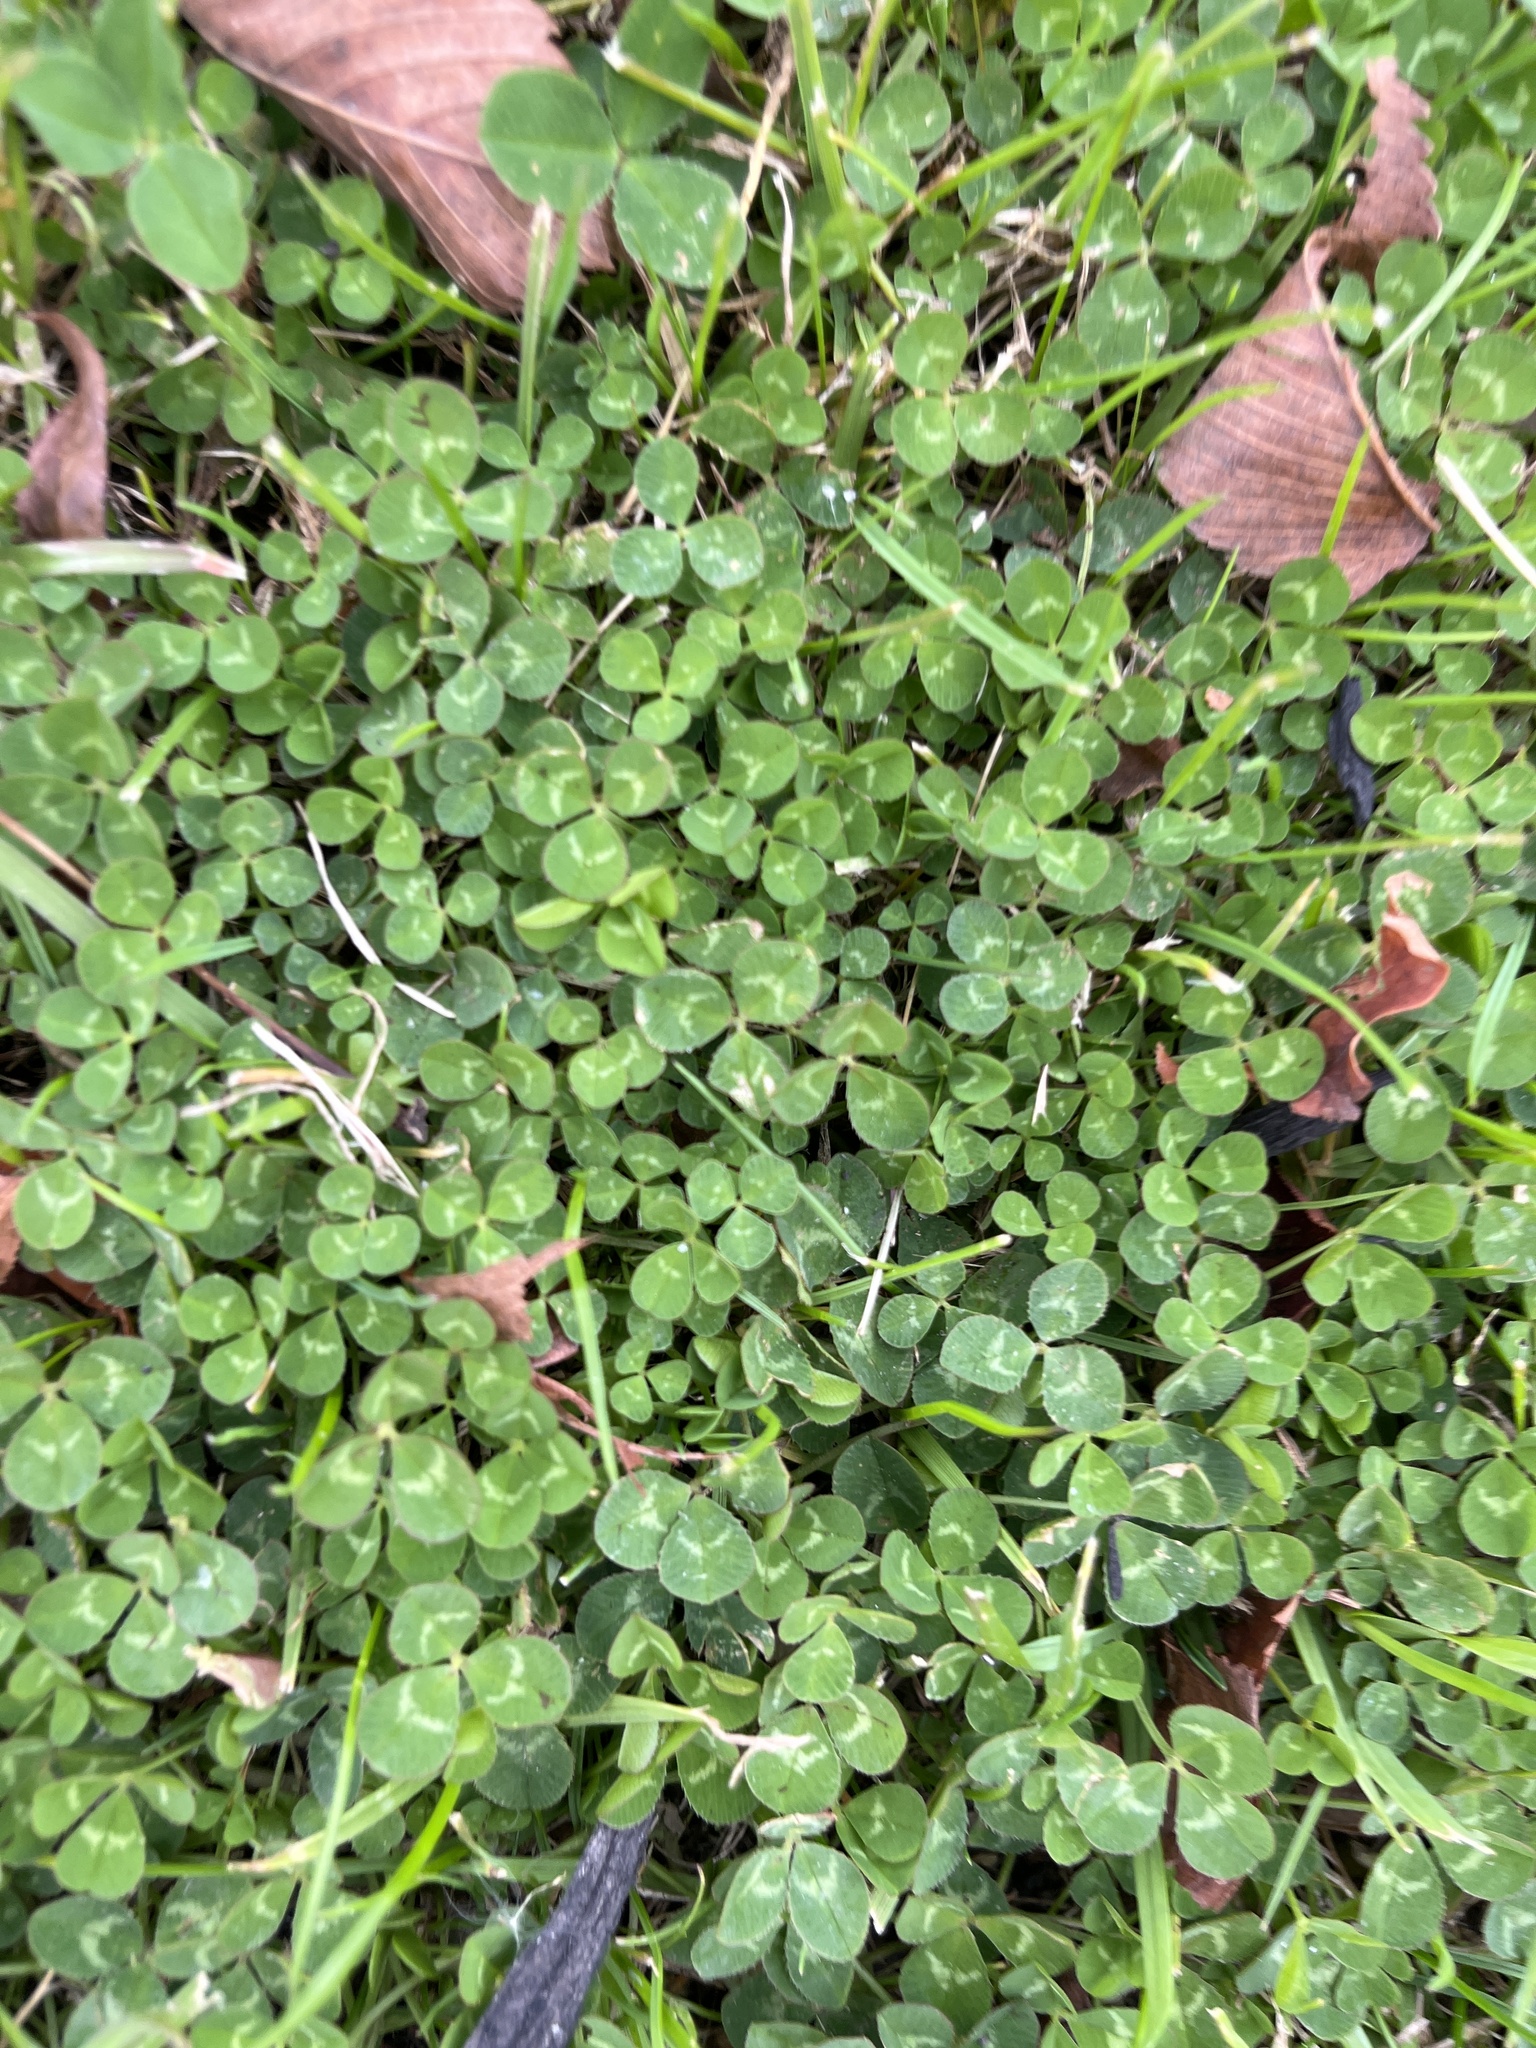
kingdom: Plantae
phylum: Tracheophyta
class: Magnoliopsida
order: Fabales
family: Fabaceae
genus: Trifolium
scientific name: Trifolium repens
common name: White clover
